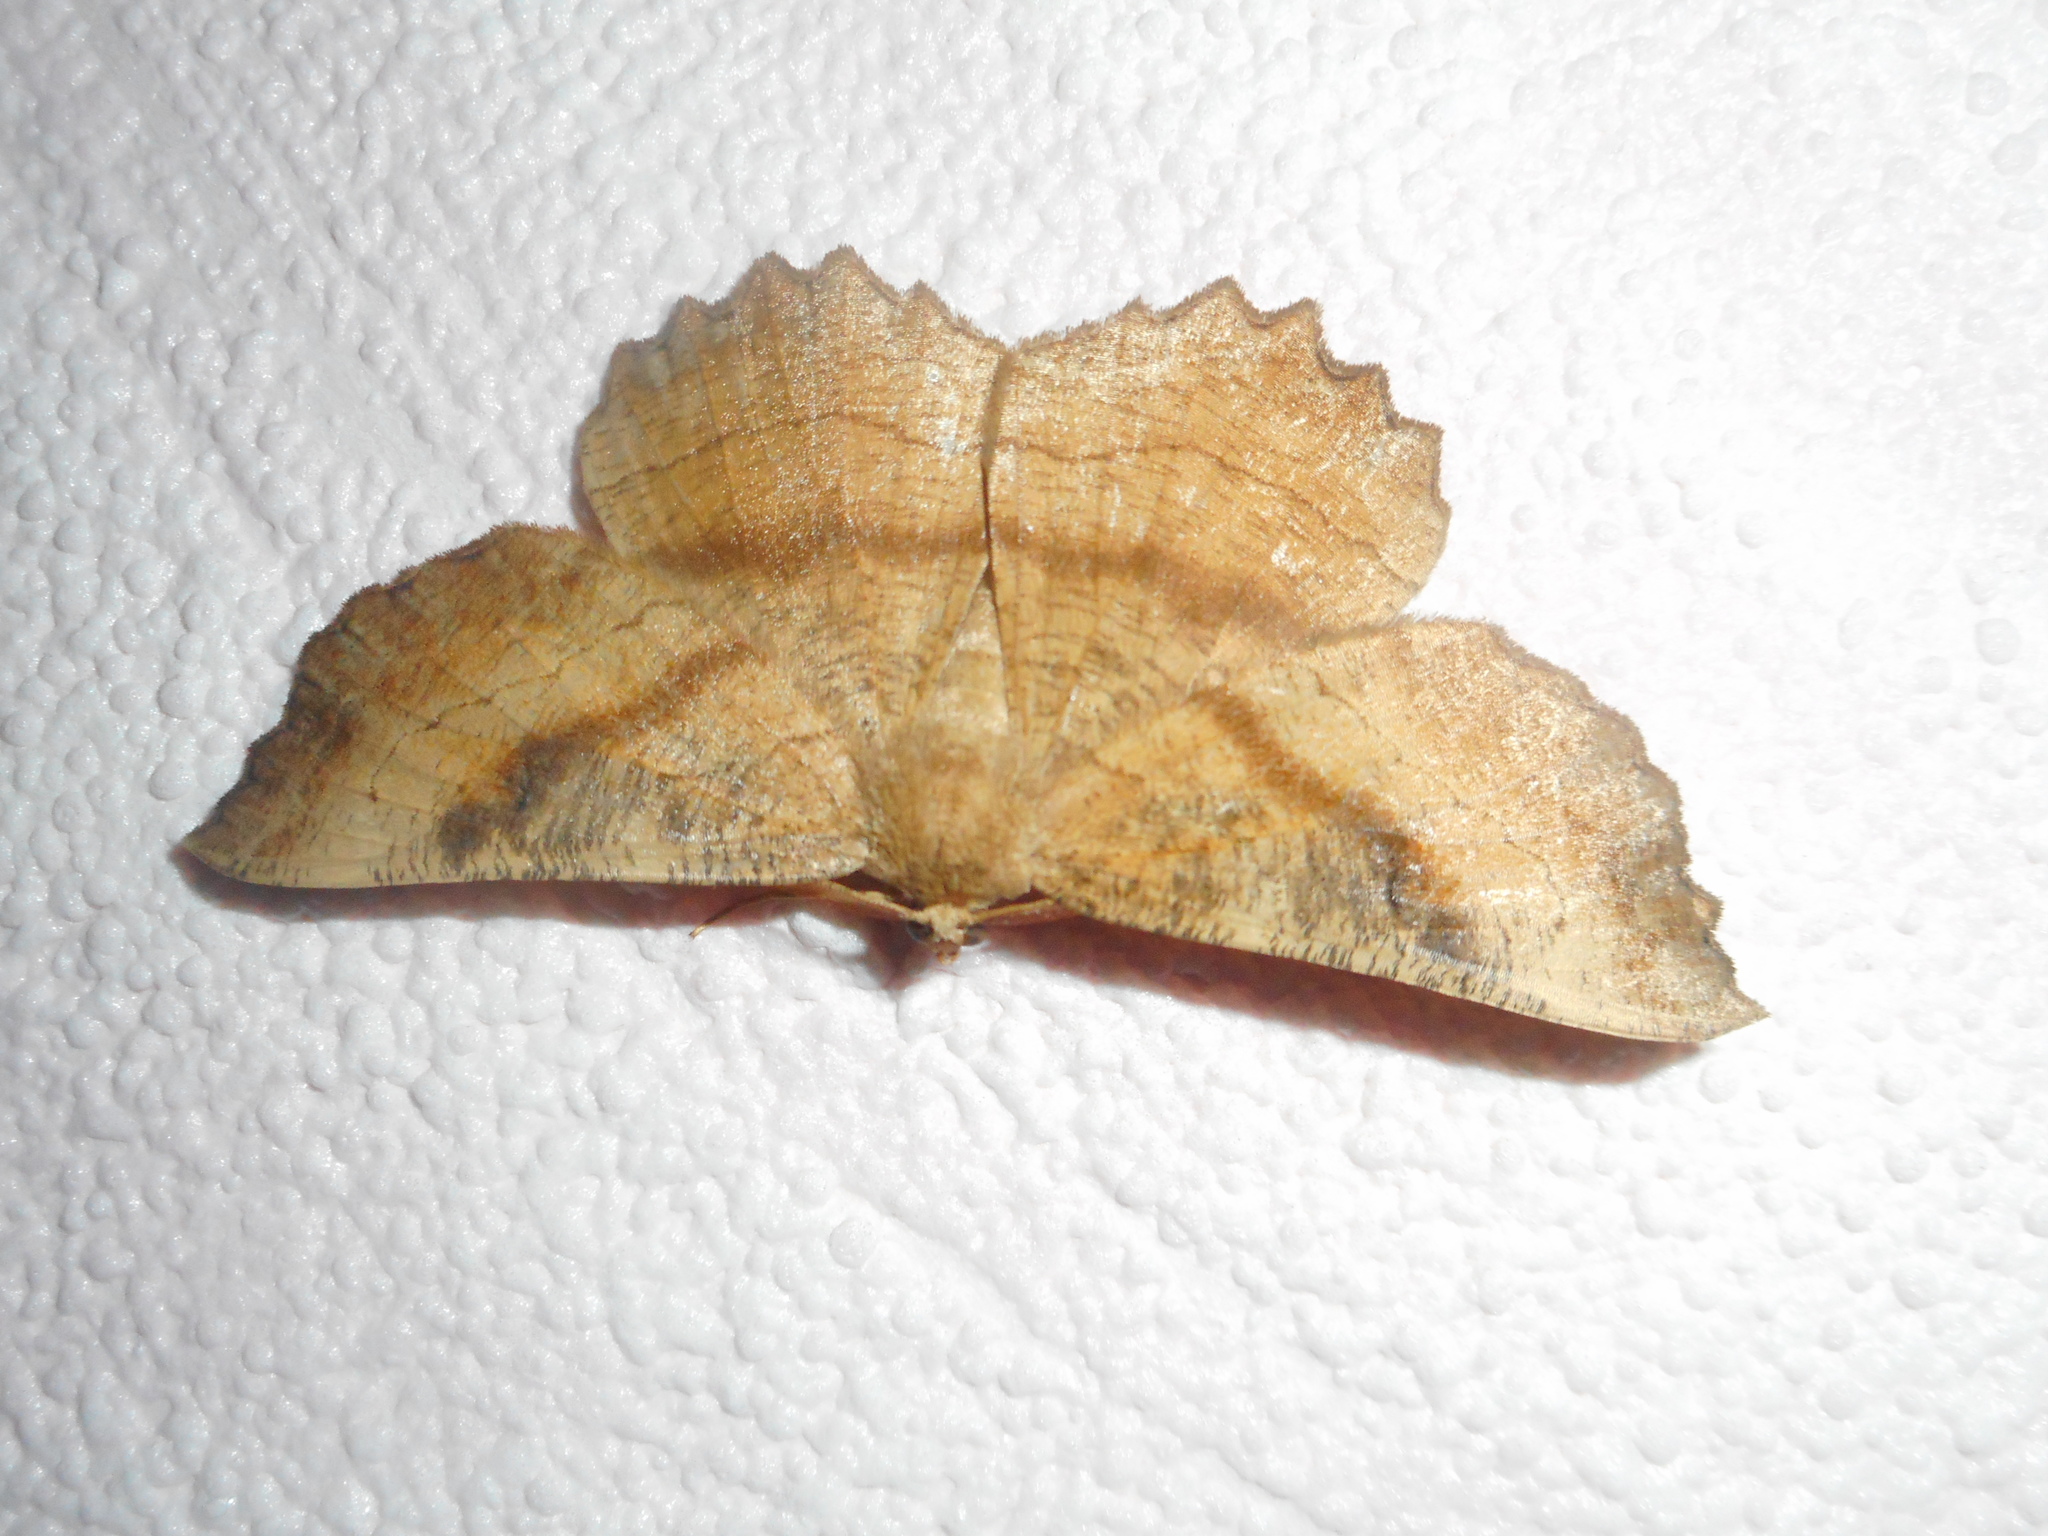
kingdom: Animalia
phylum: Arthropoda
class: Insecta
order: Lepidoptera
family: Geometridae
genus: Ctenognophos
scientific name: Ctenognophos grandinaria
